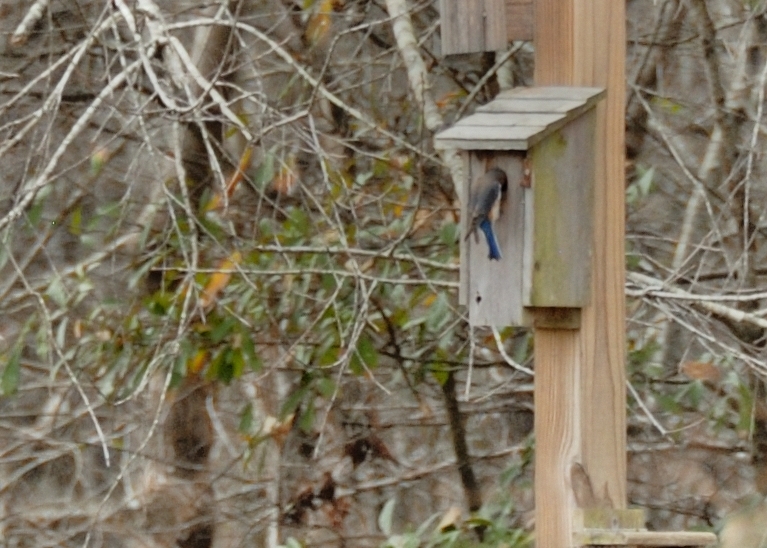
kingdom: Animalia
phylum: Chordata
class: Aves
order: Passeriformes
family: Turdidae
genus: Sialia
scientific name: Sialia sialis
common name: Eastern bluebird
